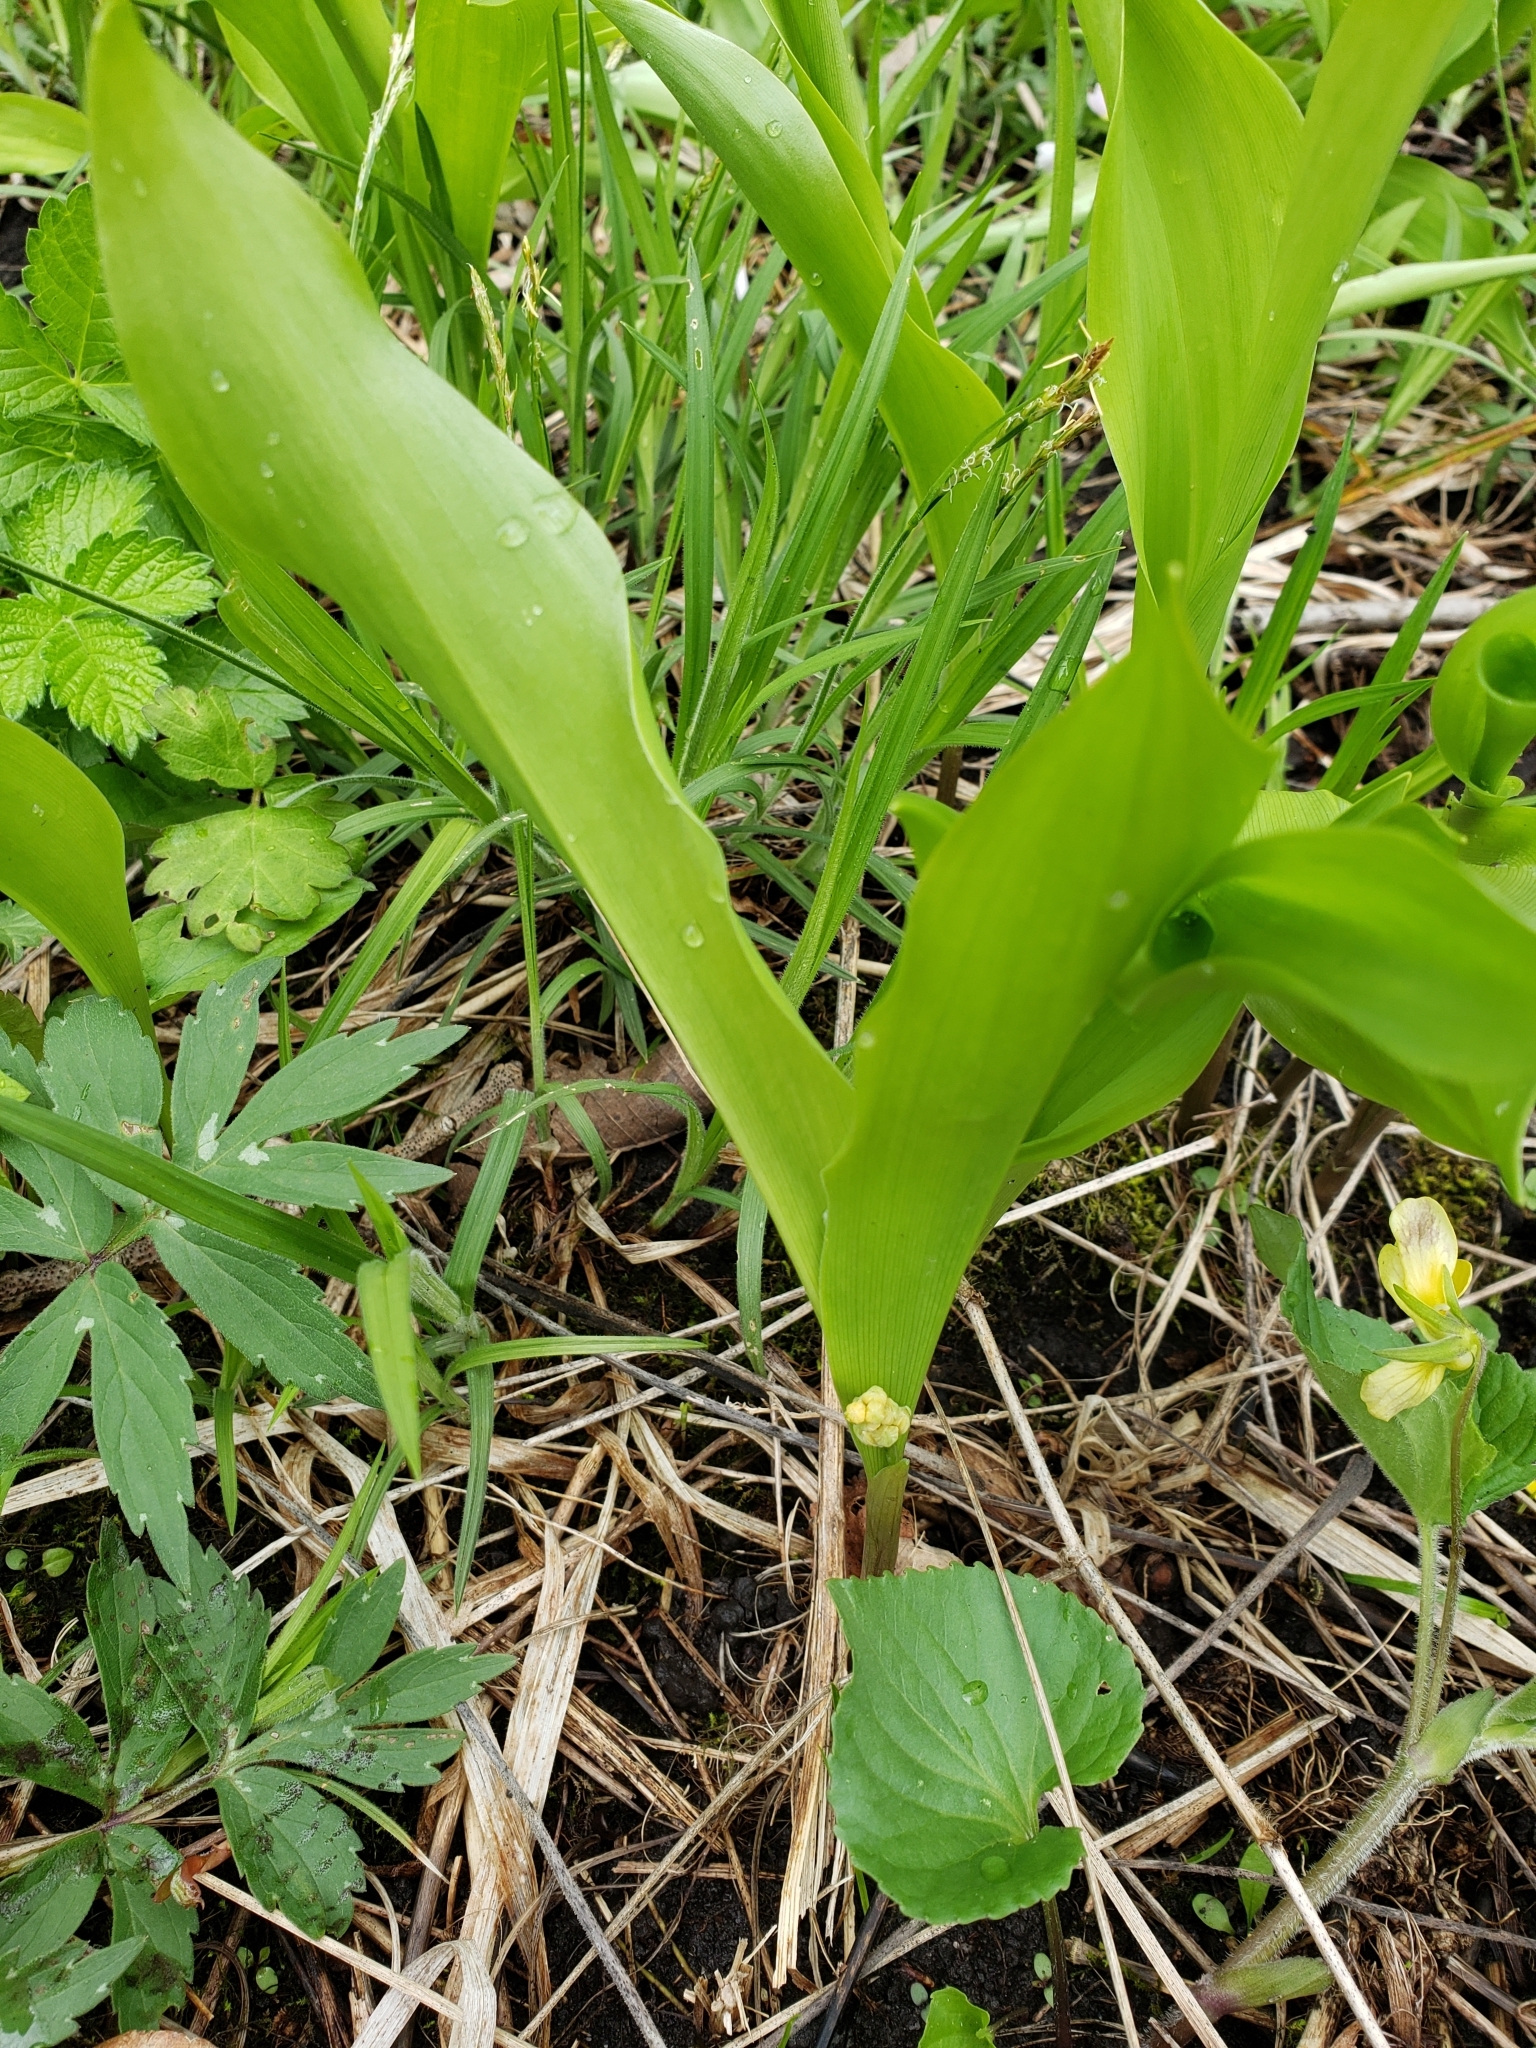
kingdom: Plantae
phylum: Tracheophyta
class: Liliopsida
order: Asparagales
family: Asparagaceae
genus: Convallaria
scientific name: Convallaria majalis
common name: Lily-of-the-valley
